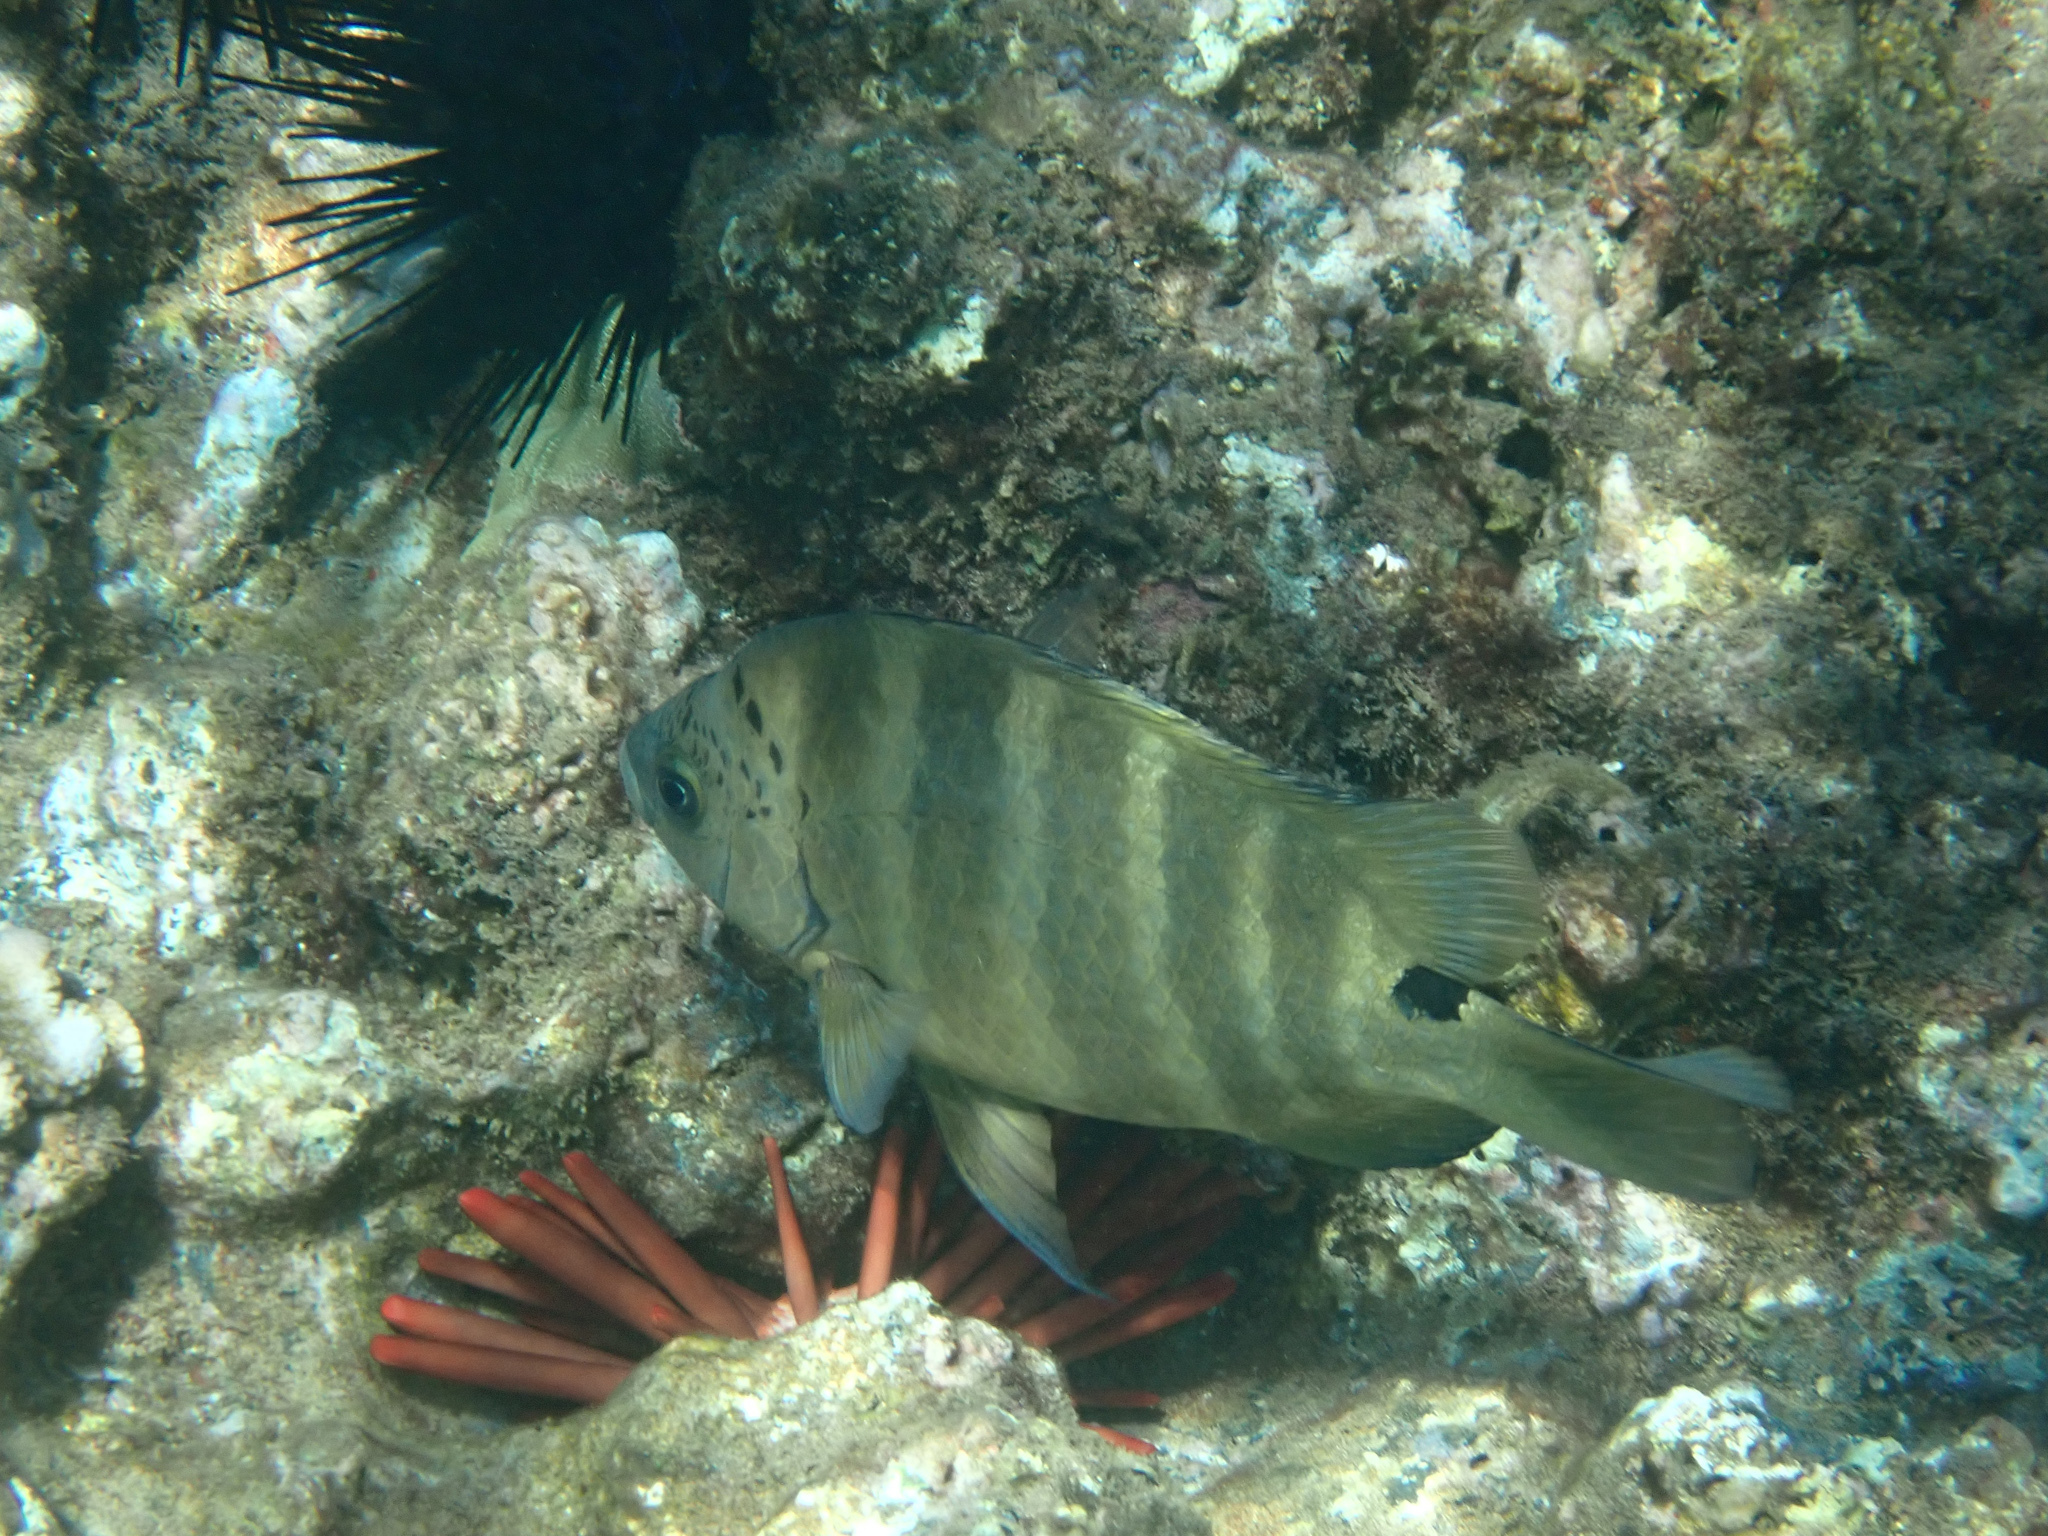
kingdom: Animalia
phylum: Chordata
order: Perciformes
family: Pomacentridae
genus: Abudefduf
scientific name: Abudefduf sordidus
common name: Blackspot sergeant
